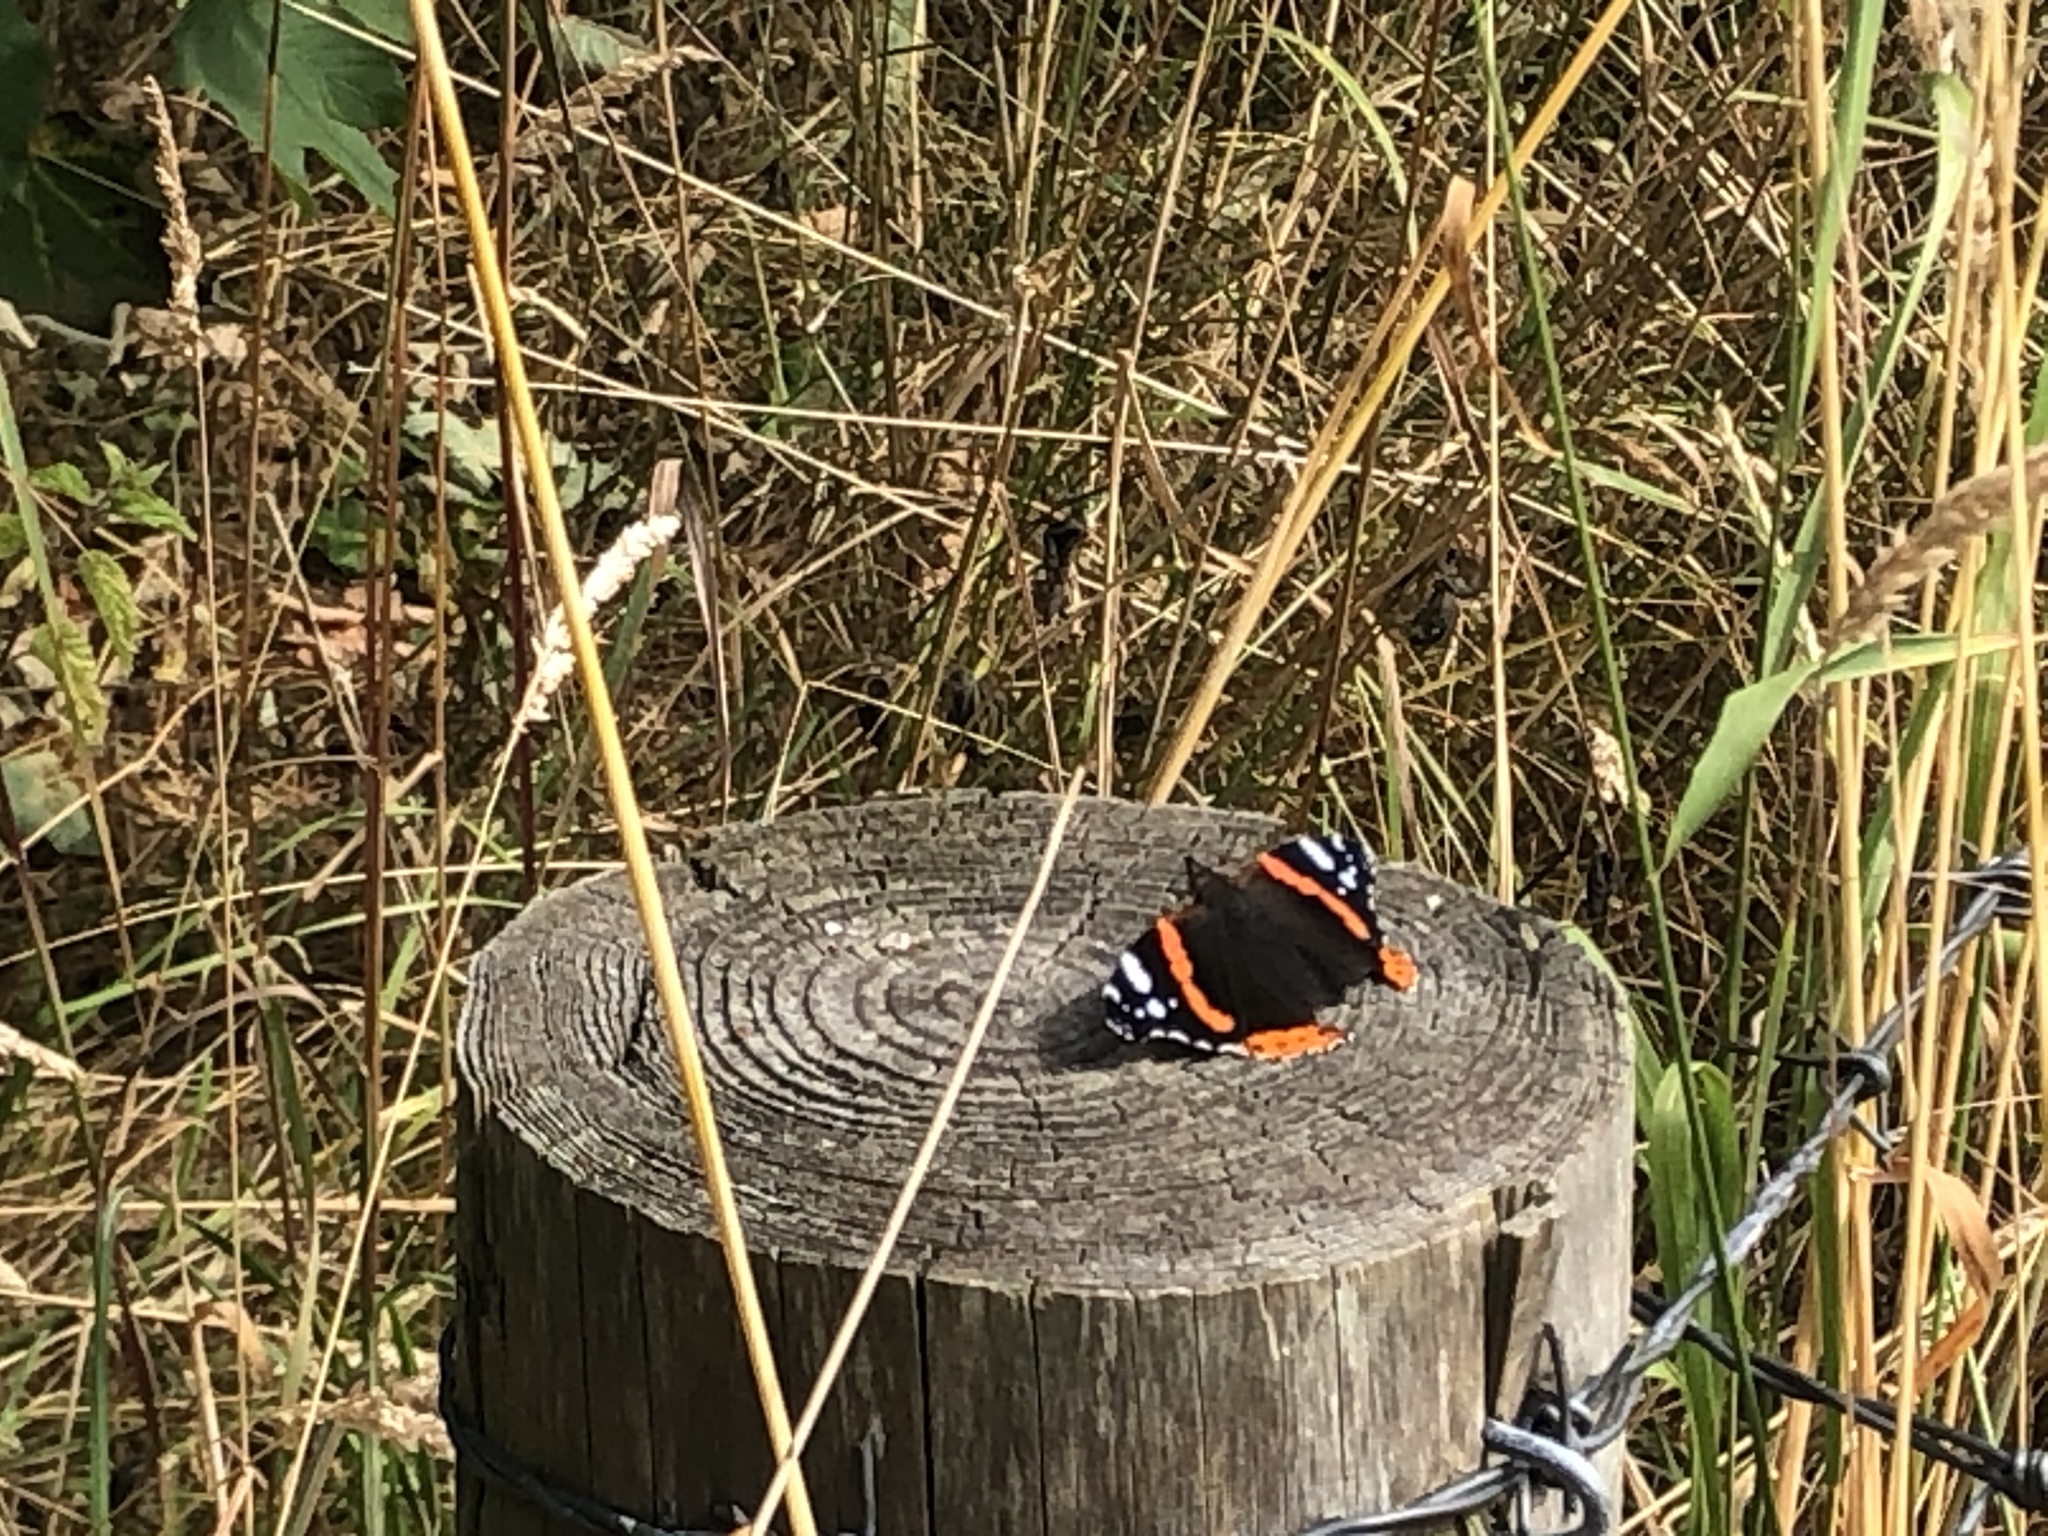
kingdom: Animalia
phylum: Arthropoda
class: Insecta
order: Lepidoptera
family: Nymphalidae
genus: Vanessa
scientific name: Vanessa atalanta
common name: Red admiral
